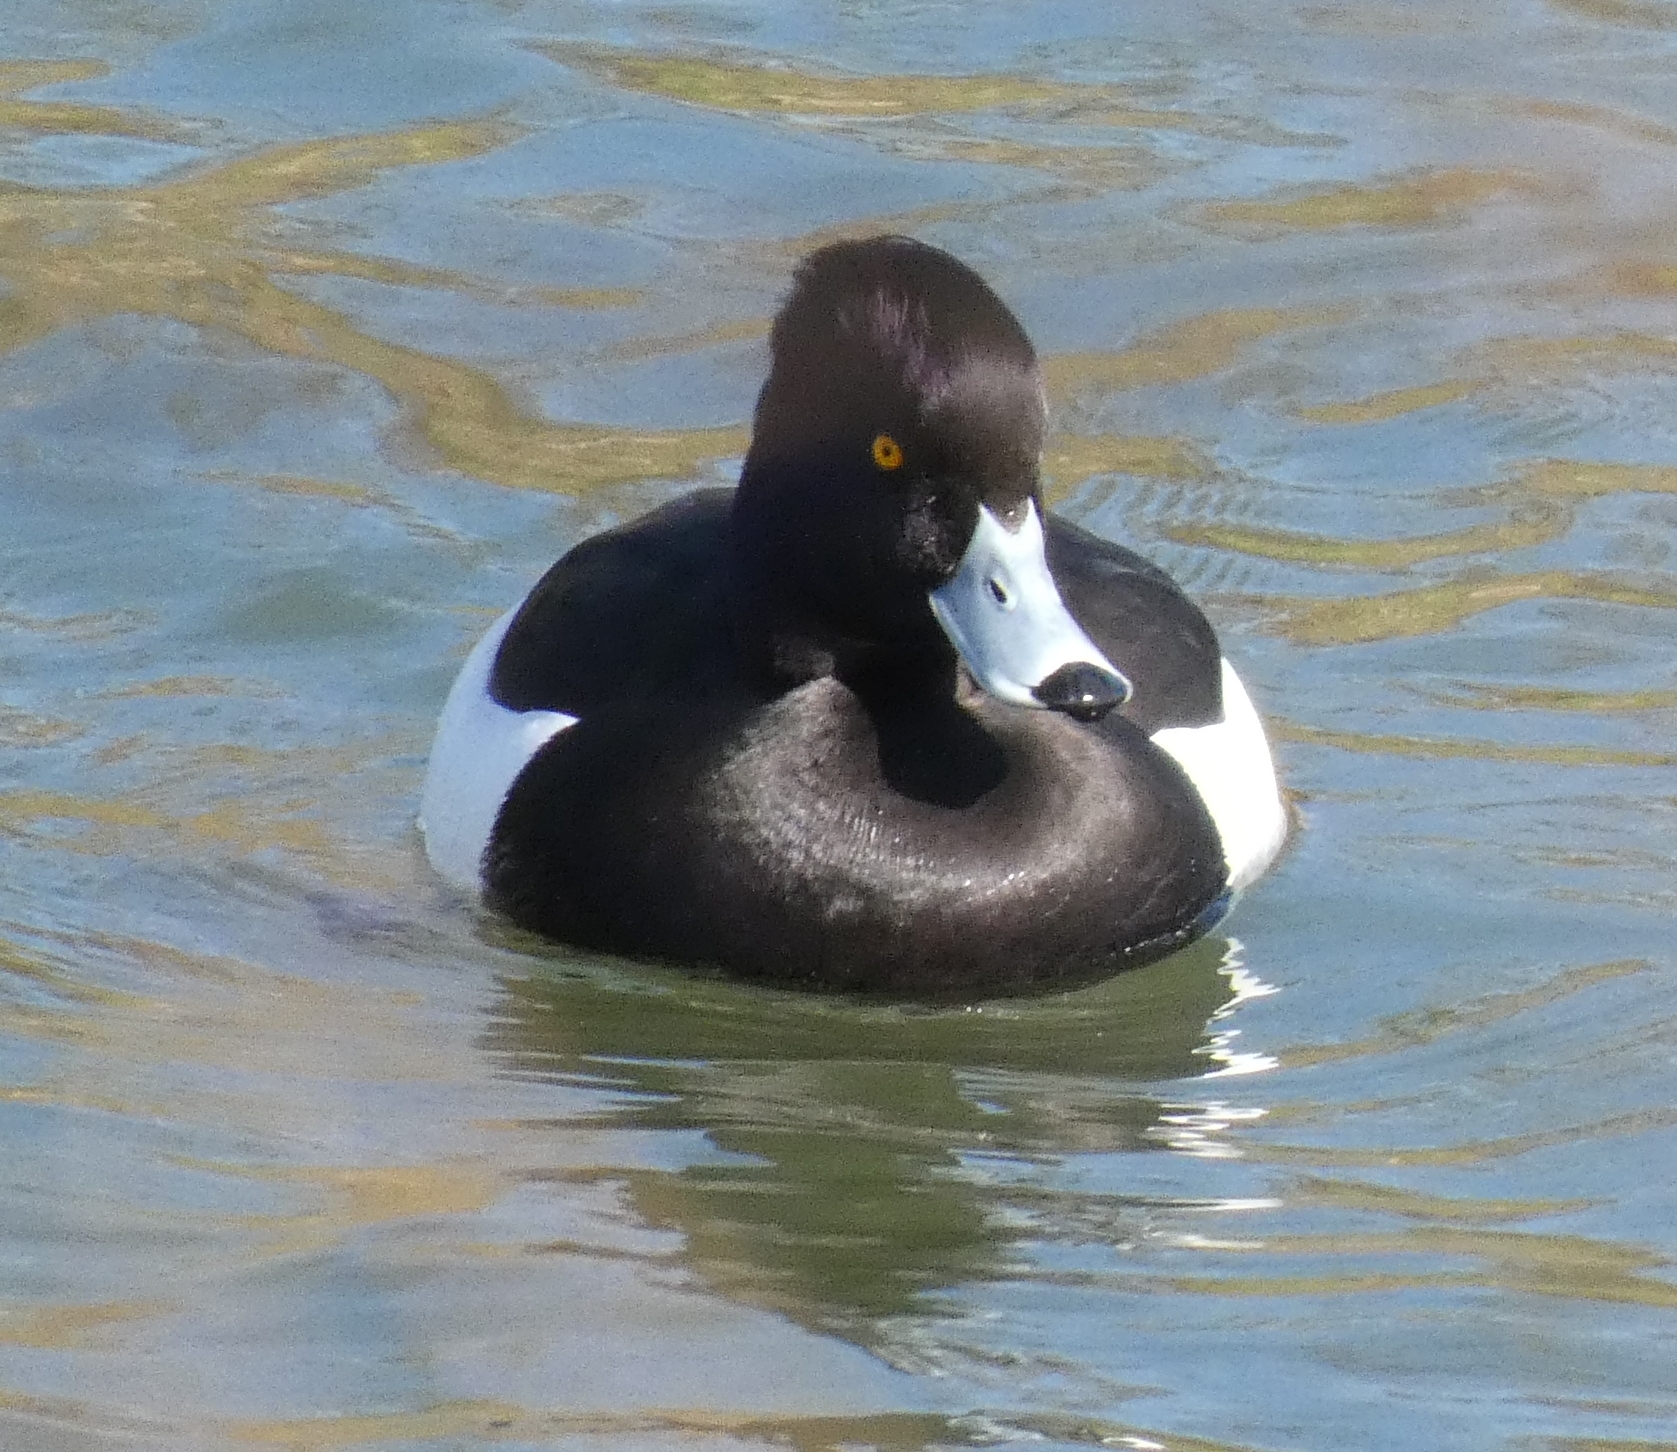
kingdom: Animalia
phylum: Chordata
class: Aves
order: Anseriformes
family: Anatidae
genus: Aythya
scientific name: Aythya fuligula
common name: Tufted duck
